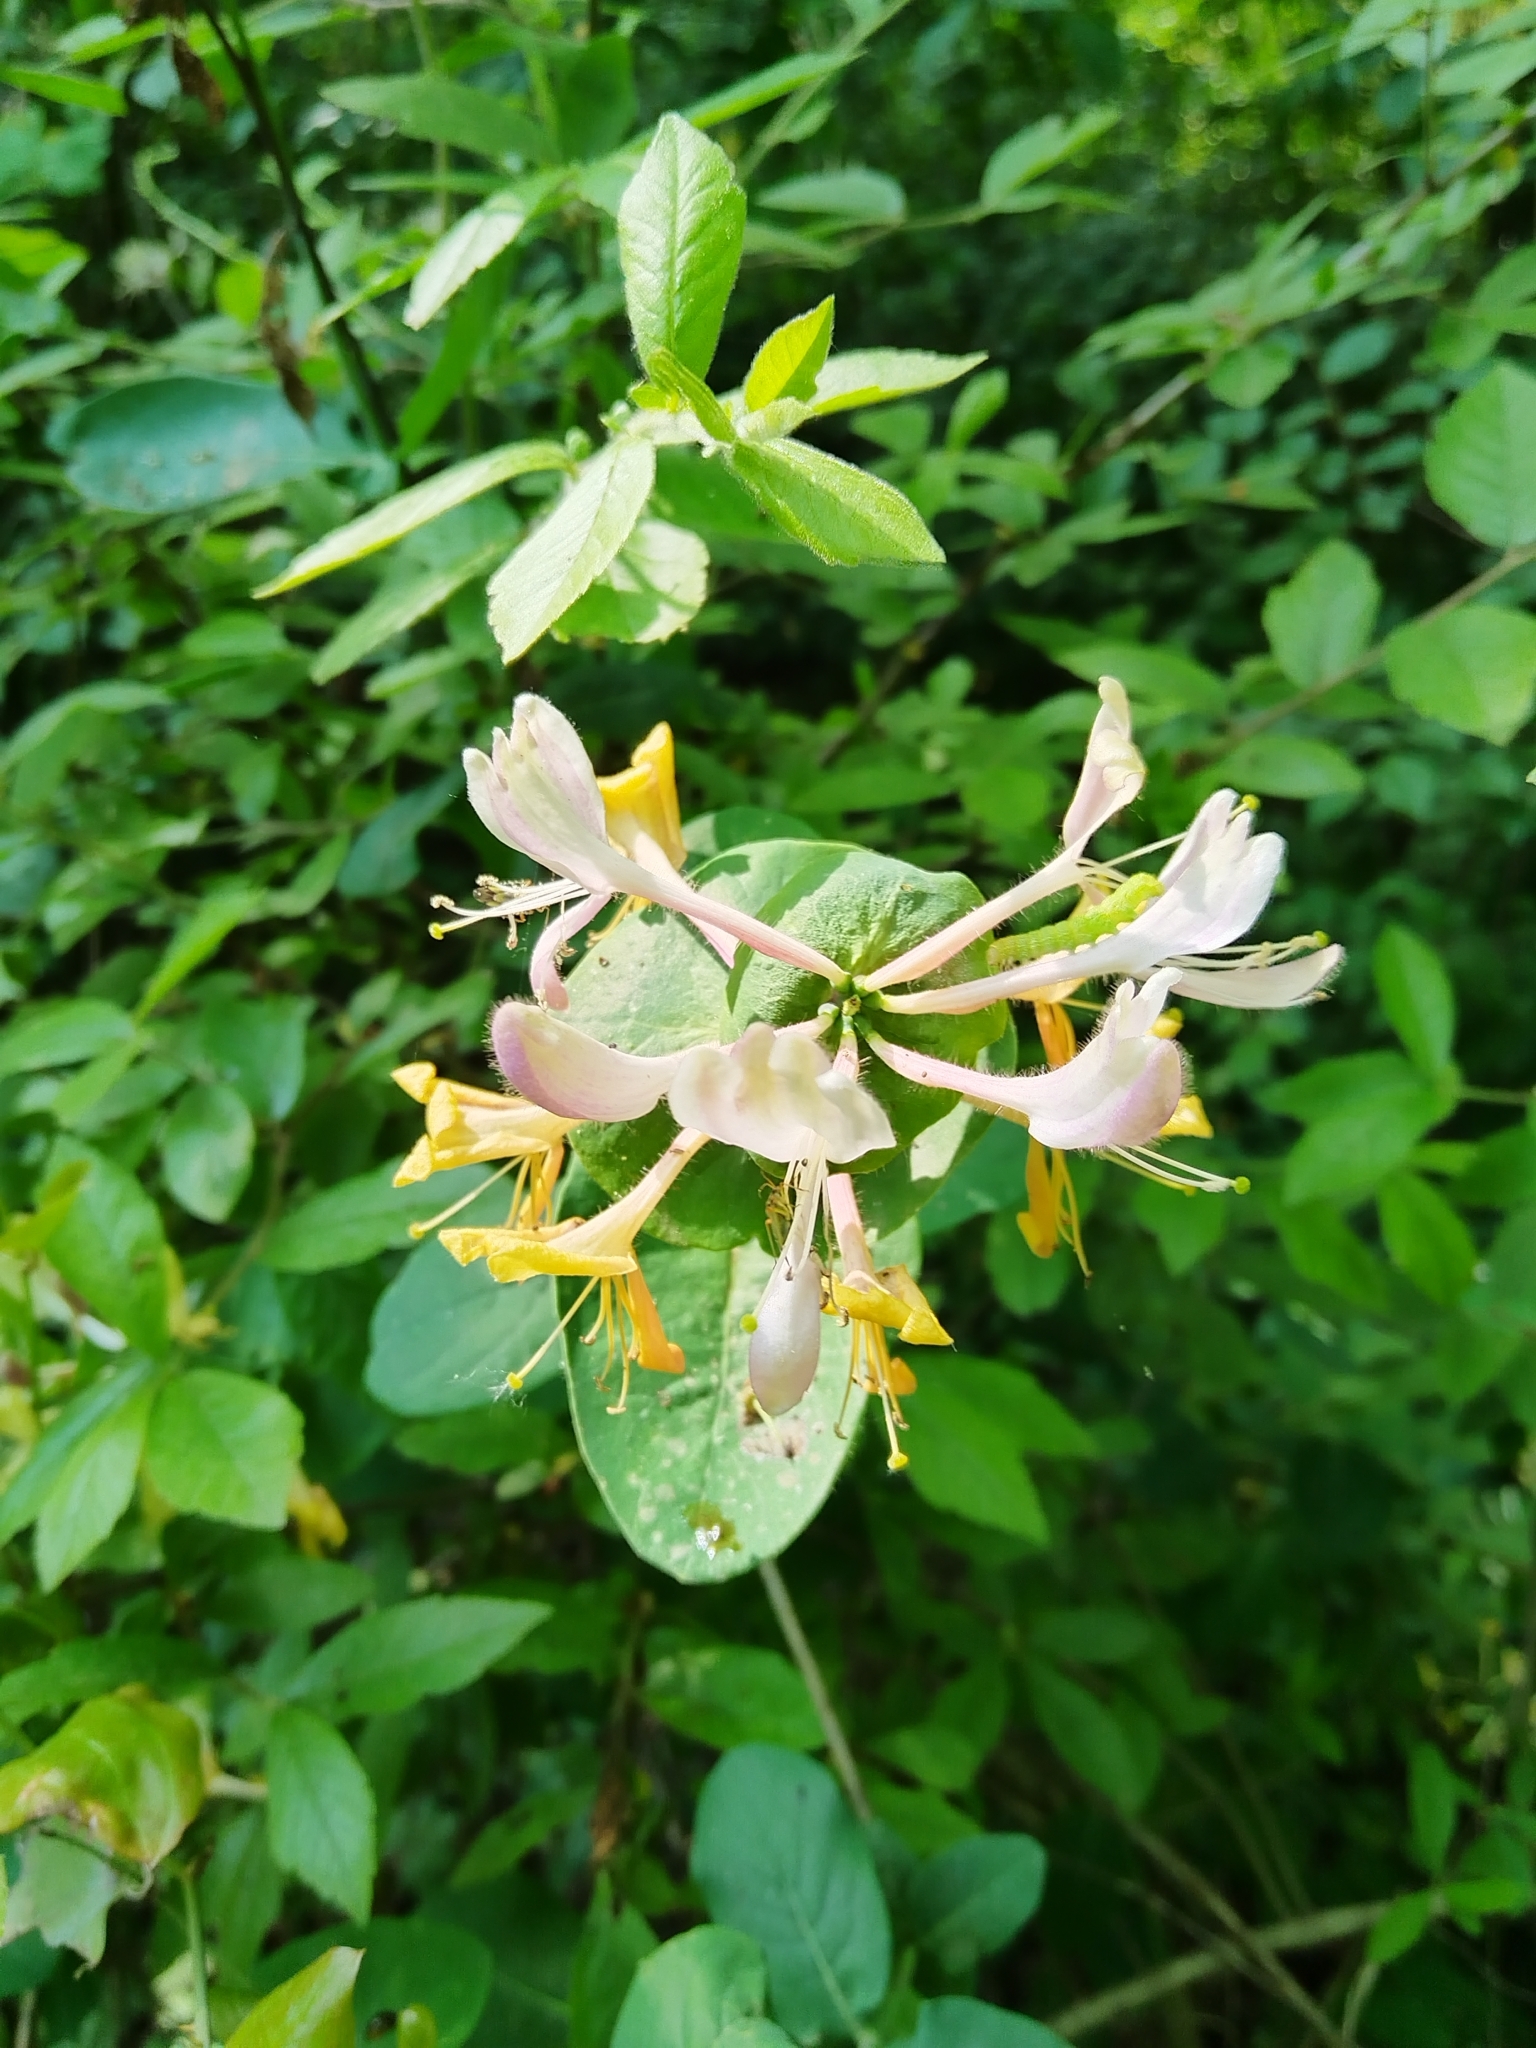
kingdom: Plantae
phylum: Tracheophyta
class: Magnoliopsida
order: Dipsacales
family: Caprifoliaceae
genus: Lonicera
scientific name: Lonicera caprifolium
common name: Perfoliate honeysuckle
